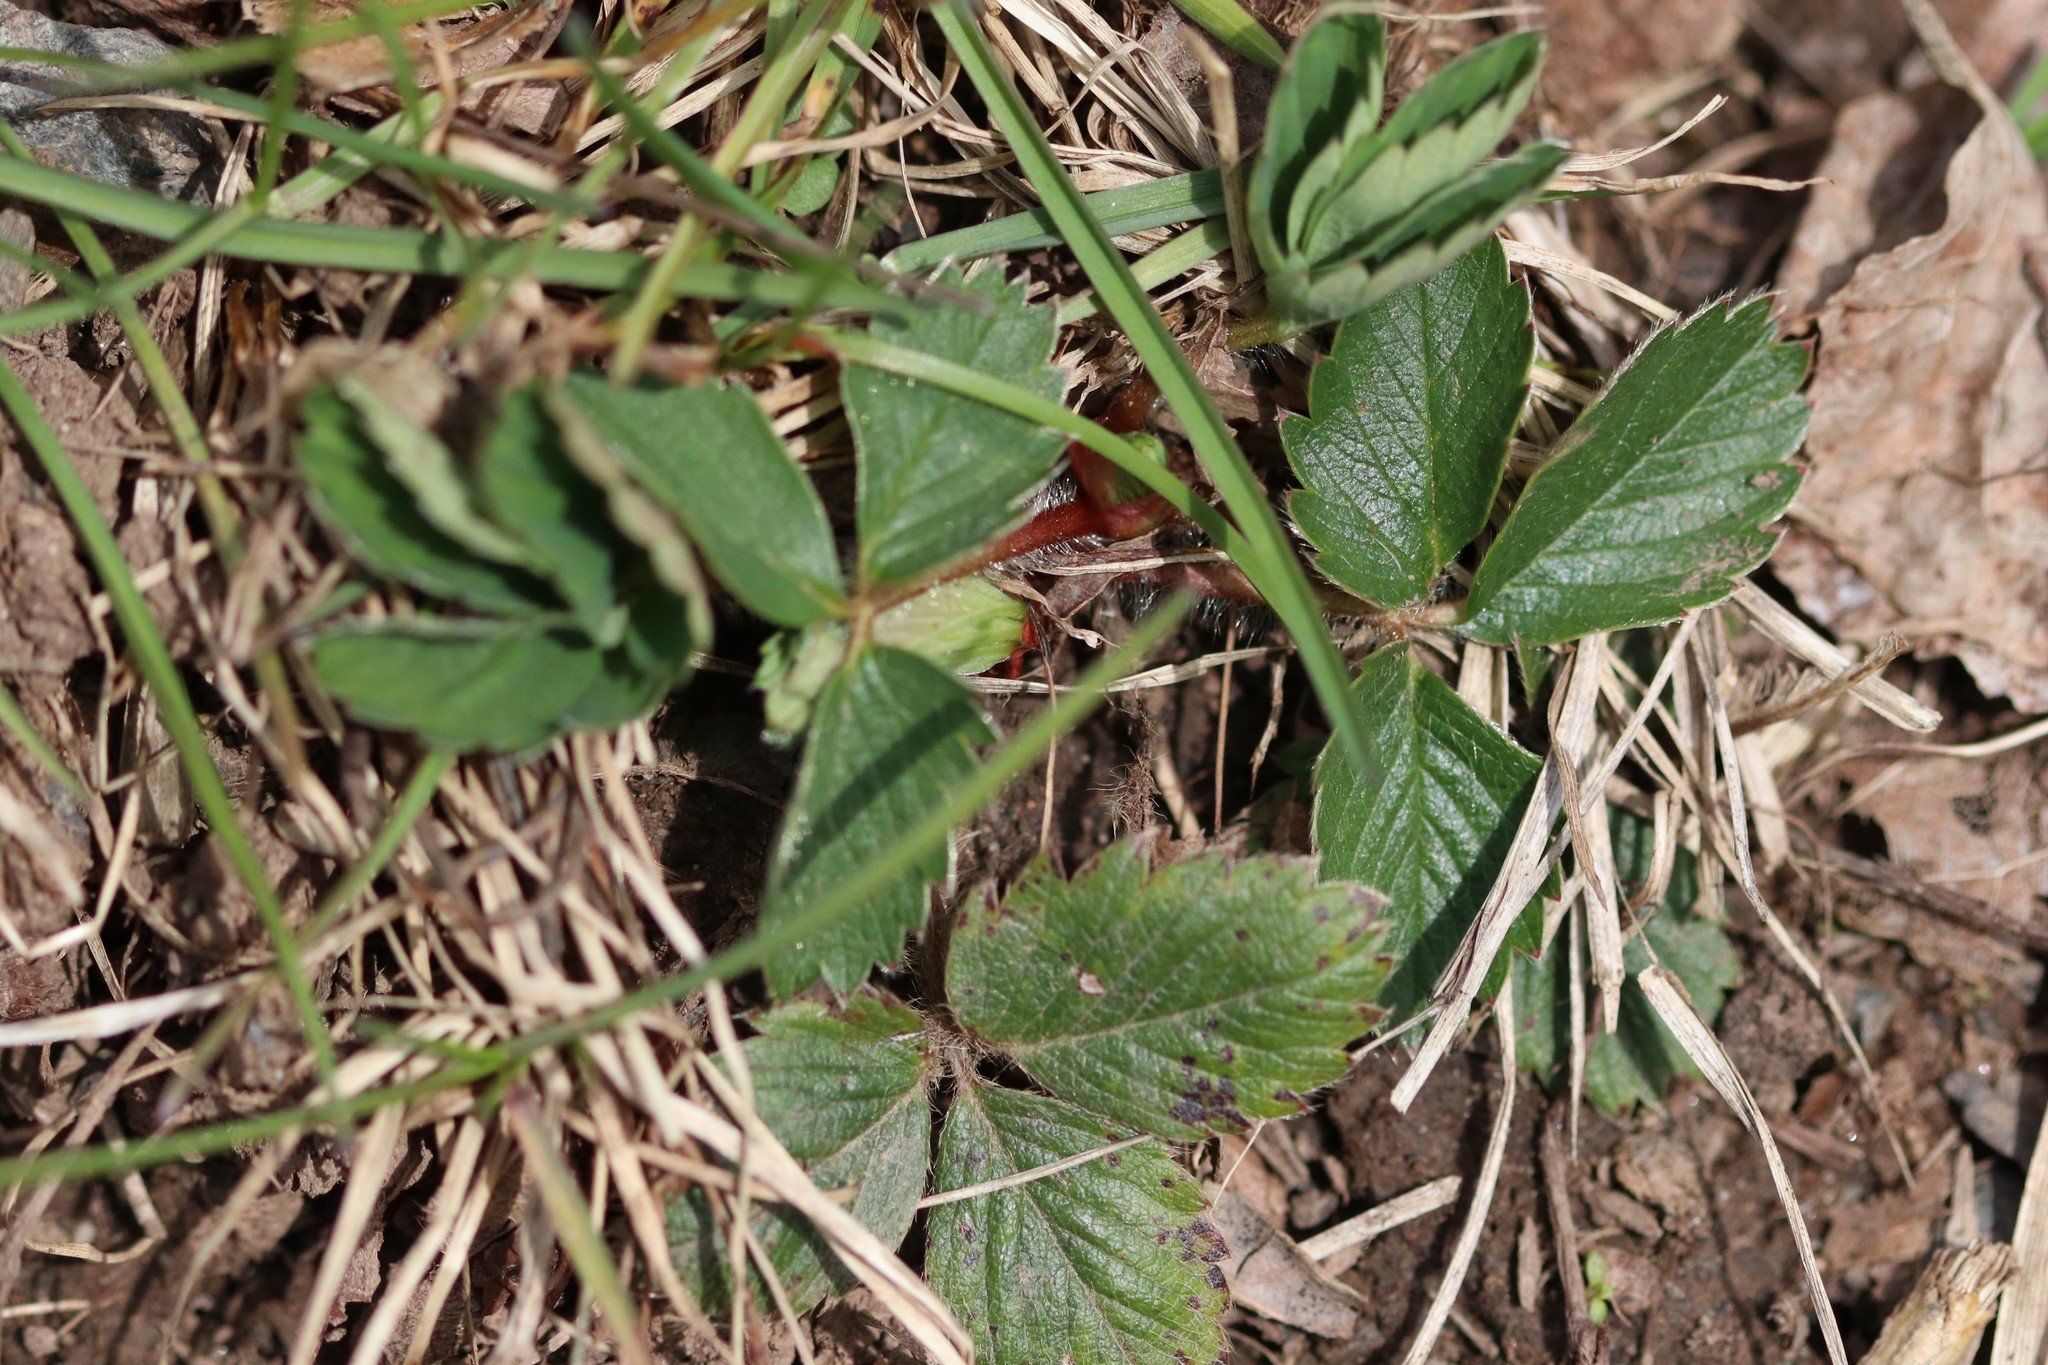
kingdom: Plantae
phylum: Tracheophyta
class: Magnoliopsida
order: Rosales
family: Rosaceae
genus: Fragaria
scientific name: Fragaria virginiana
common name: Thickleaved wild strawberry
